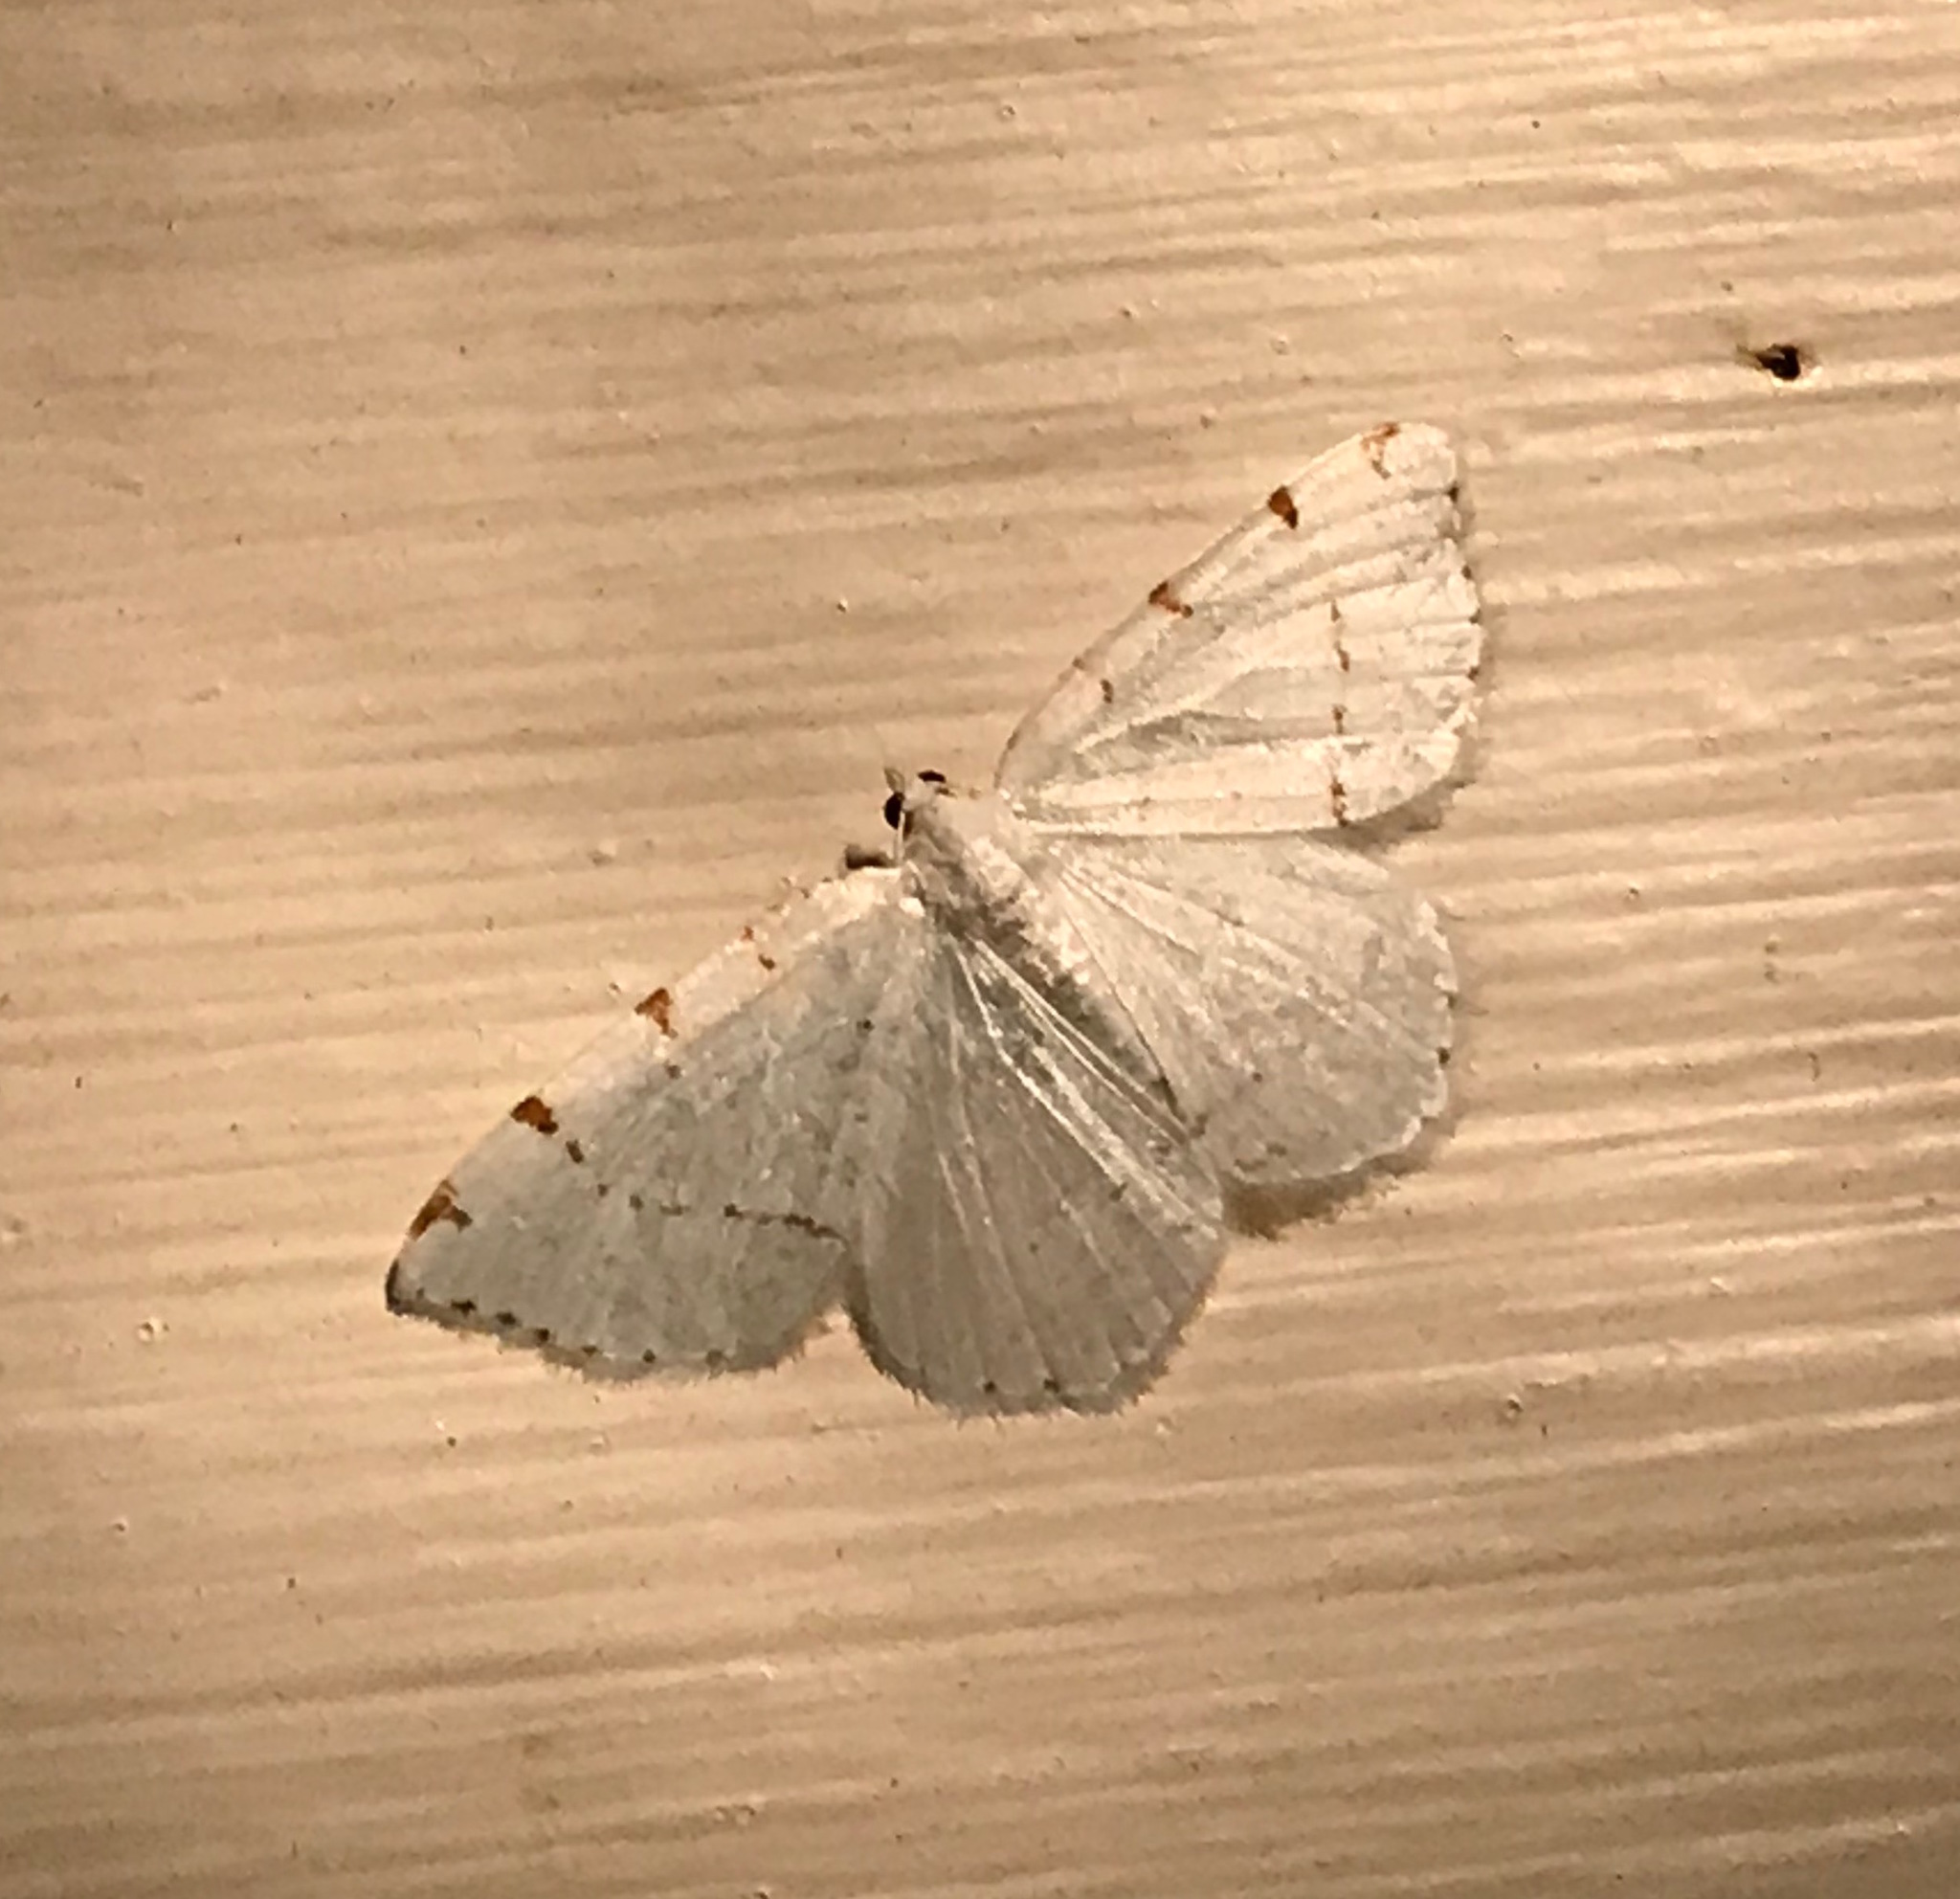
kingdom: Animalia
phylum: Arthropoda
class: Insecta
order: Lepidoptera
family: Geometridae
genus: Macaria
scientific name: Macaria pustularia
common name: Lesser maple spanworm moth
